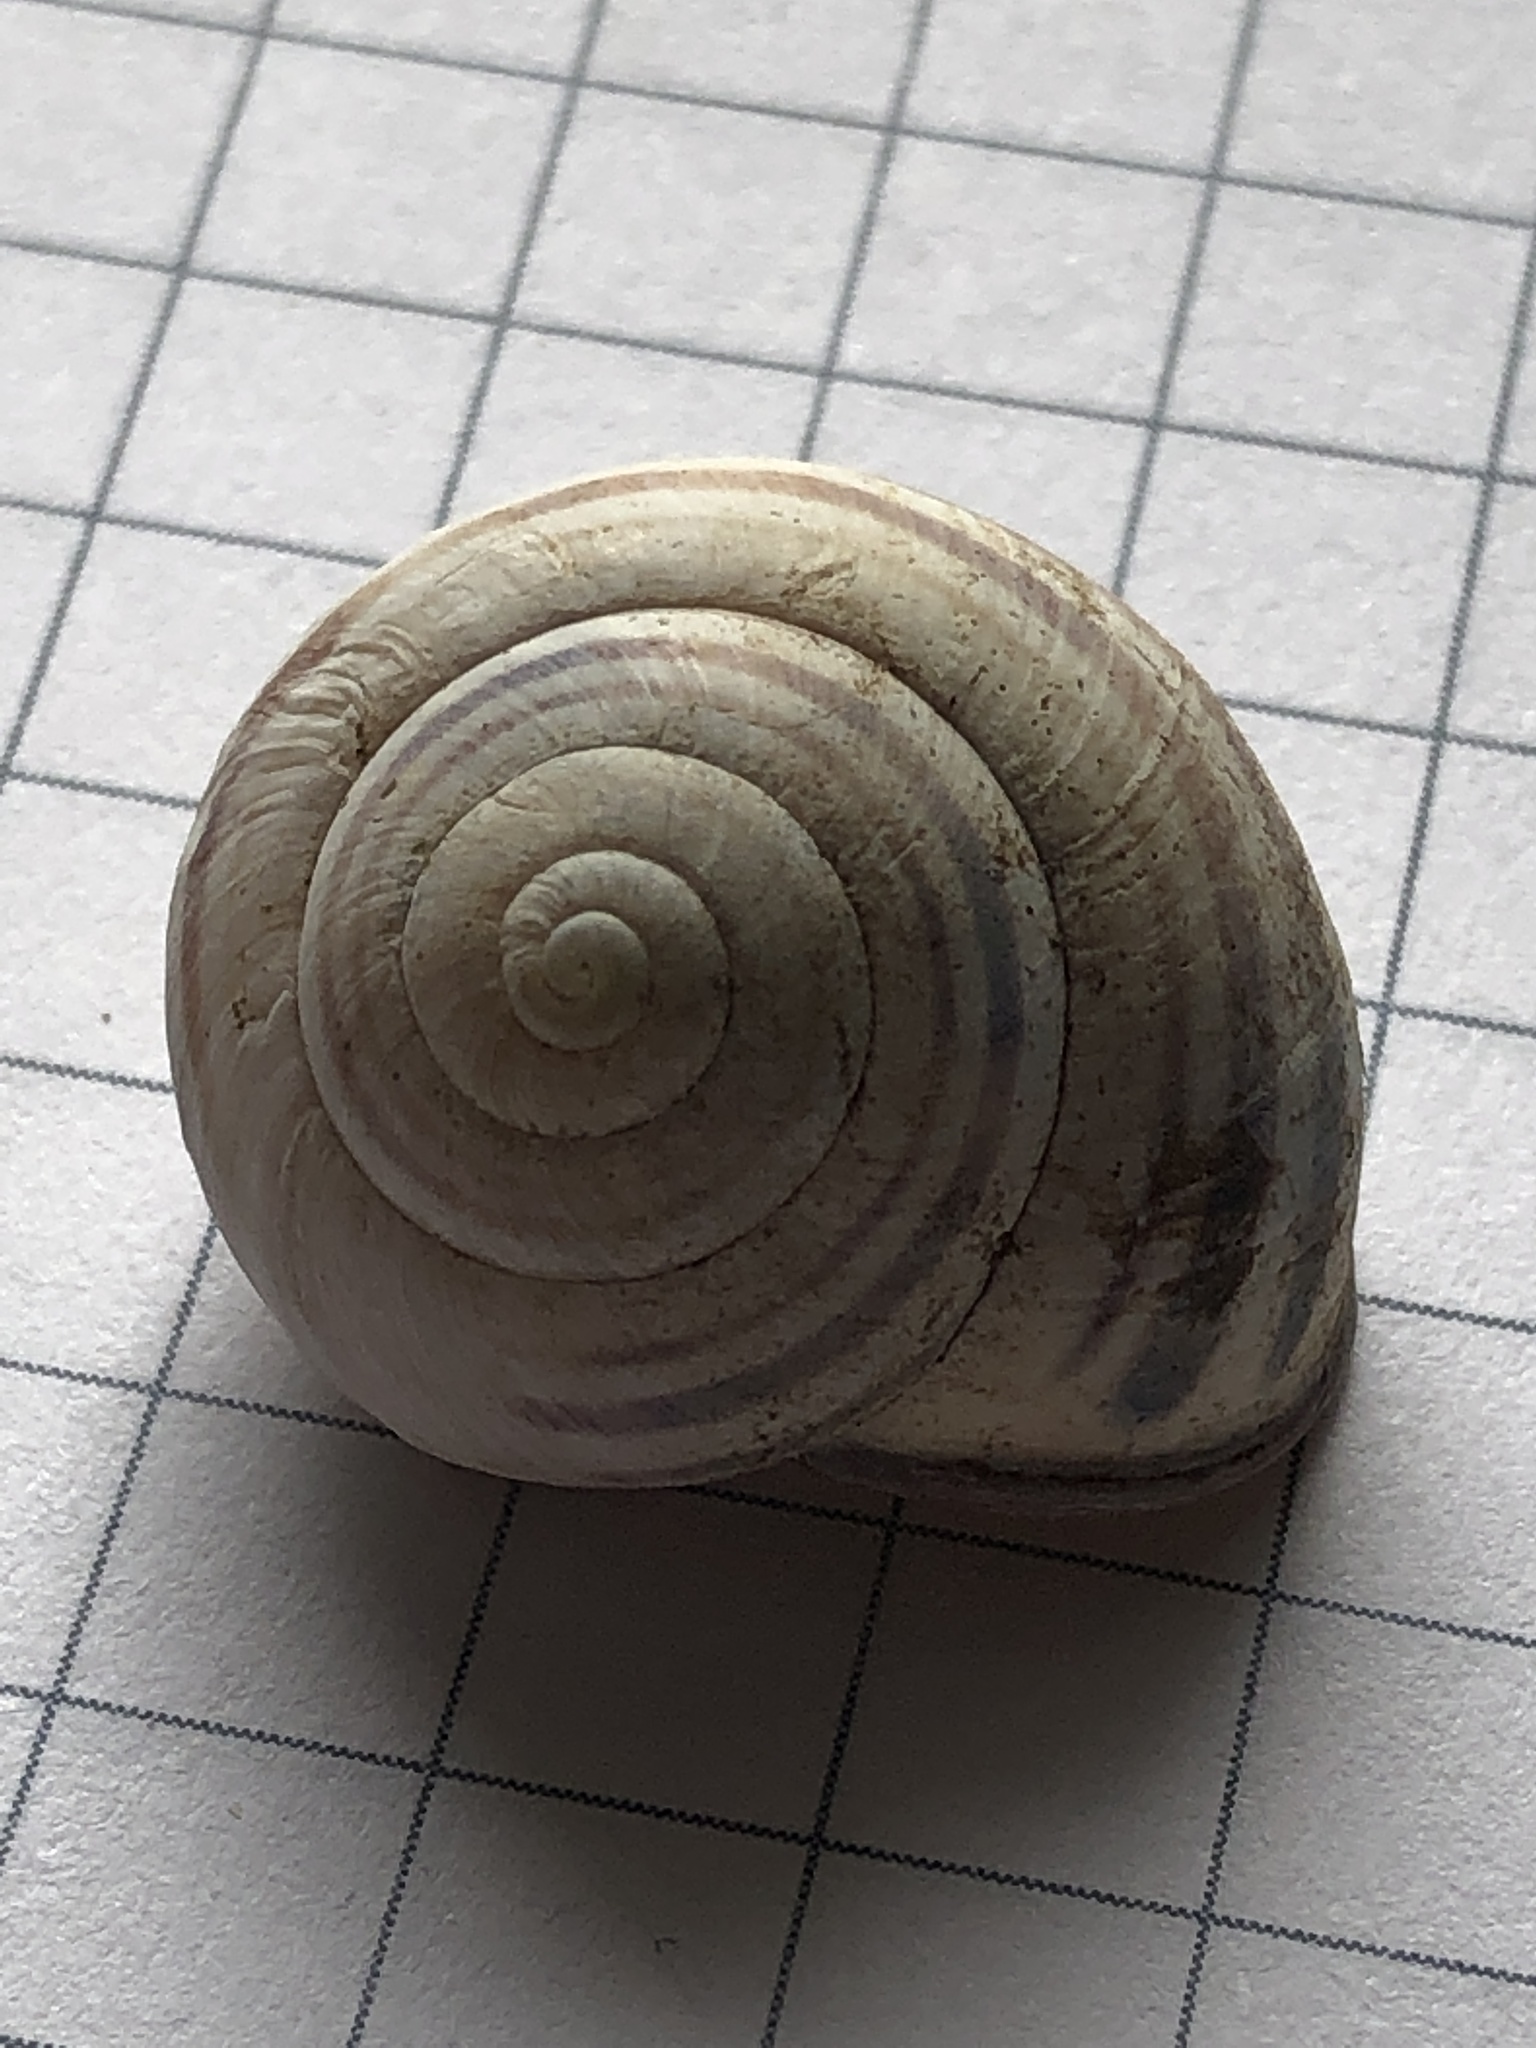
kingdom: Animalia
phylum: Mollusca
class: Gastropoda
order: Stylommatophora
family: Helicidae
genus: Cepaea
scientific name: Cepaea nemoralis
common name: Grovesnail
